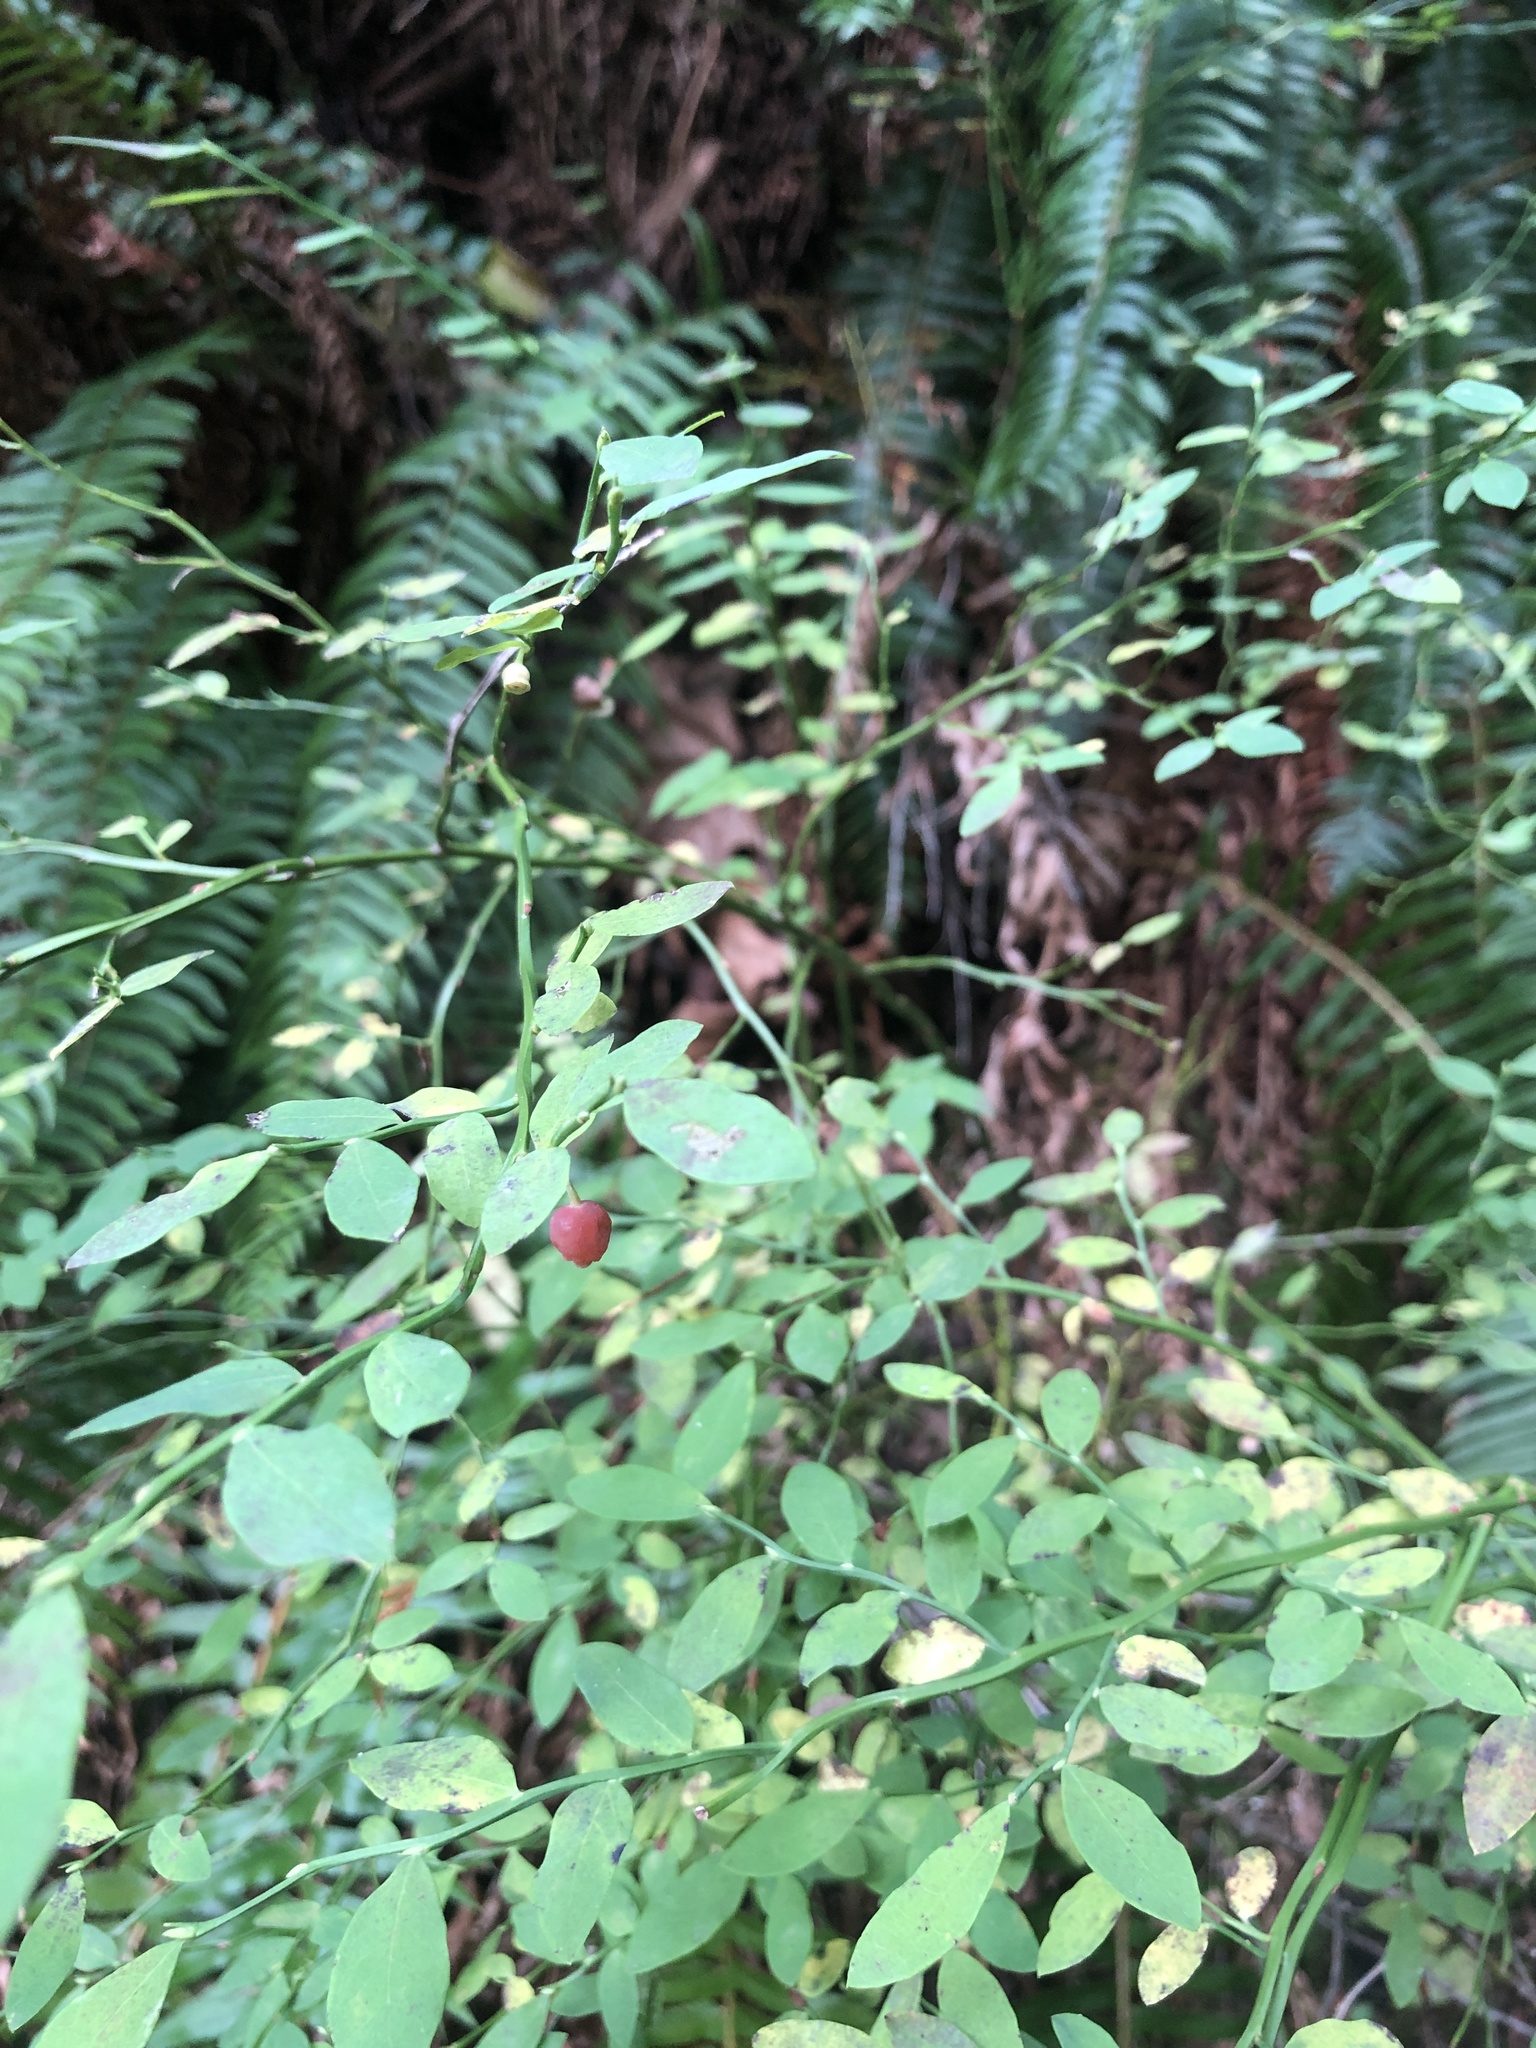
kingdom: Plantae
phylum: Tracheophyta
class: Magnoliopsida
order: Ericales
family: Ericaceae
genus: Vaccinium
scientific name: Vaccinium parvifolium
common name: Red-huckleberry
